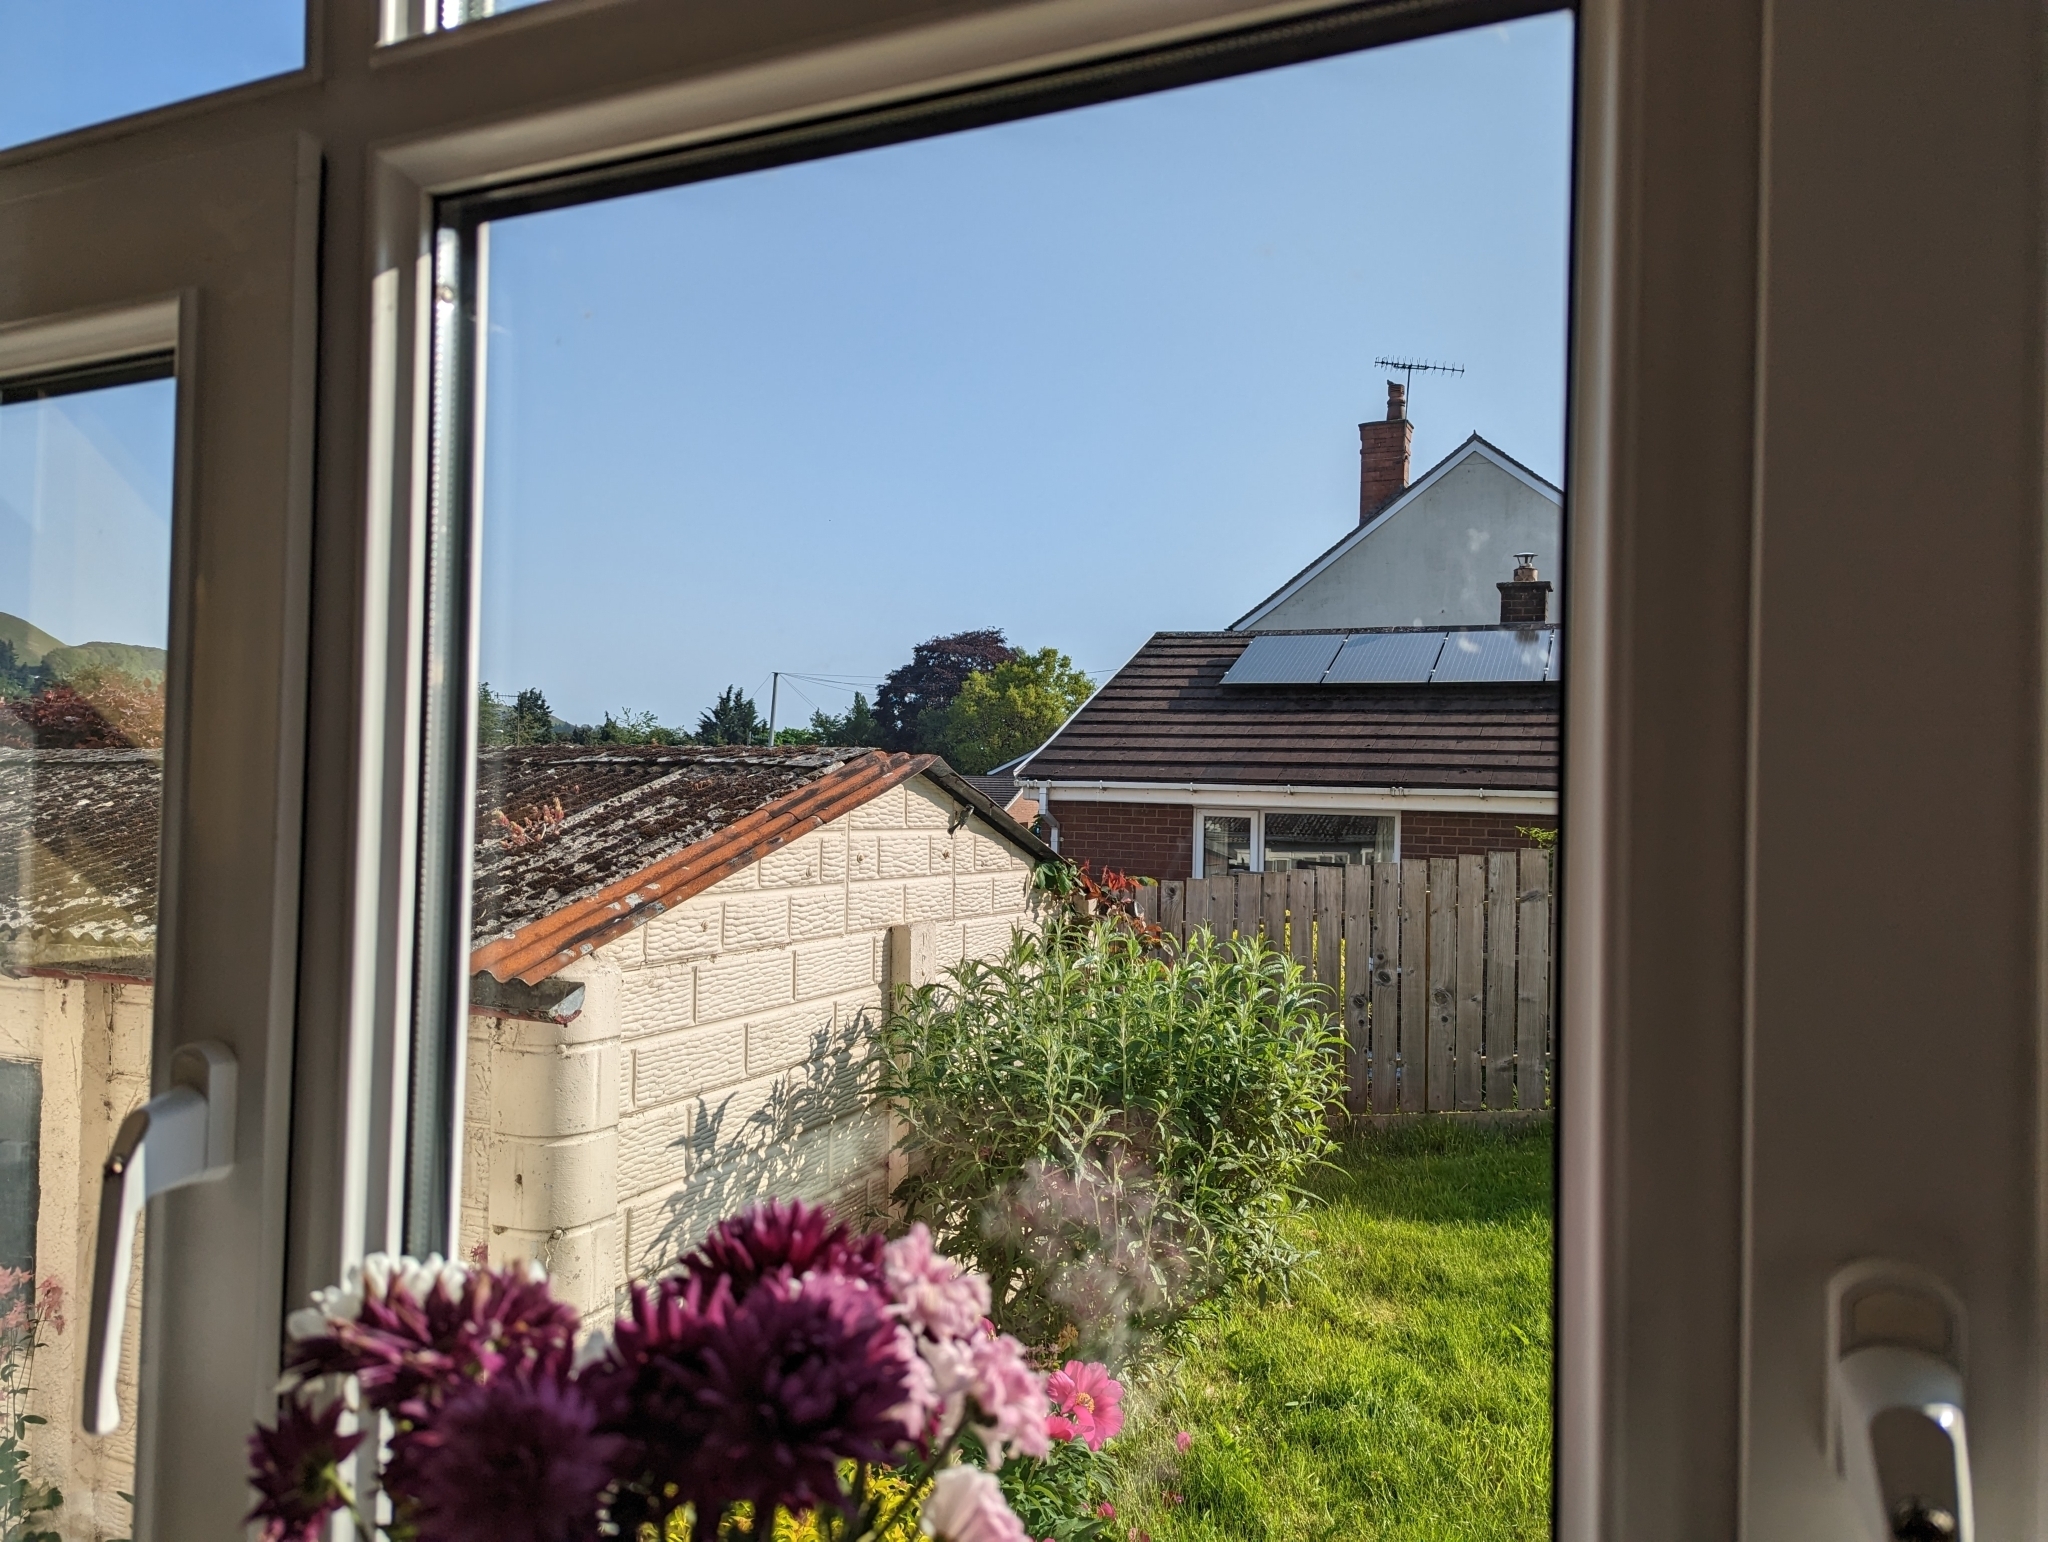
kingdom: Animalia
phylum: Chordata
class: Aves
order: Passeriformes
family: Paridae
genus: Cyanistes
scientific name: Cyanistes caeruleus
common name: Eurasian blue tit
